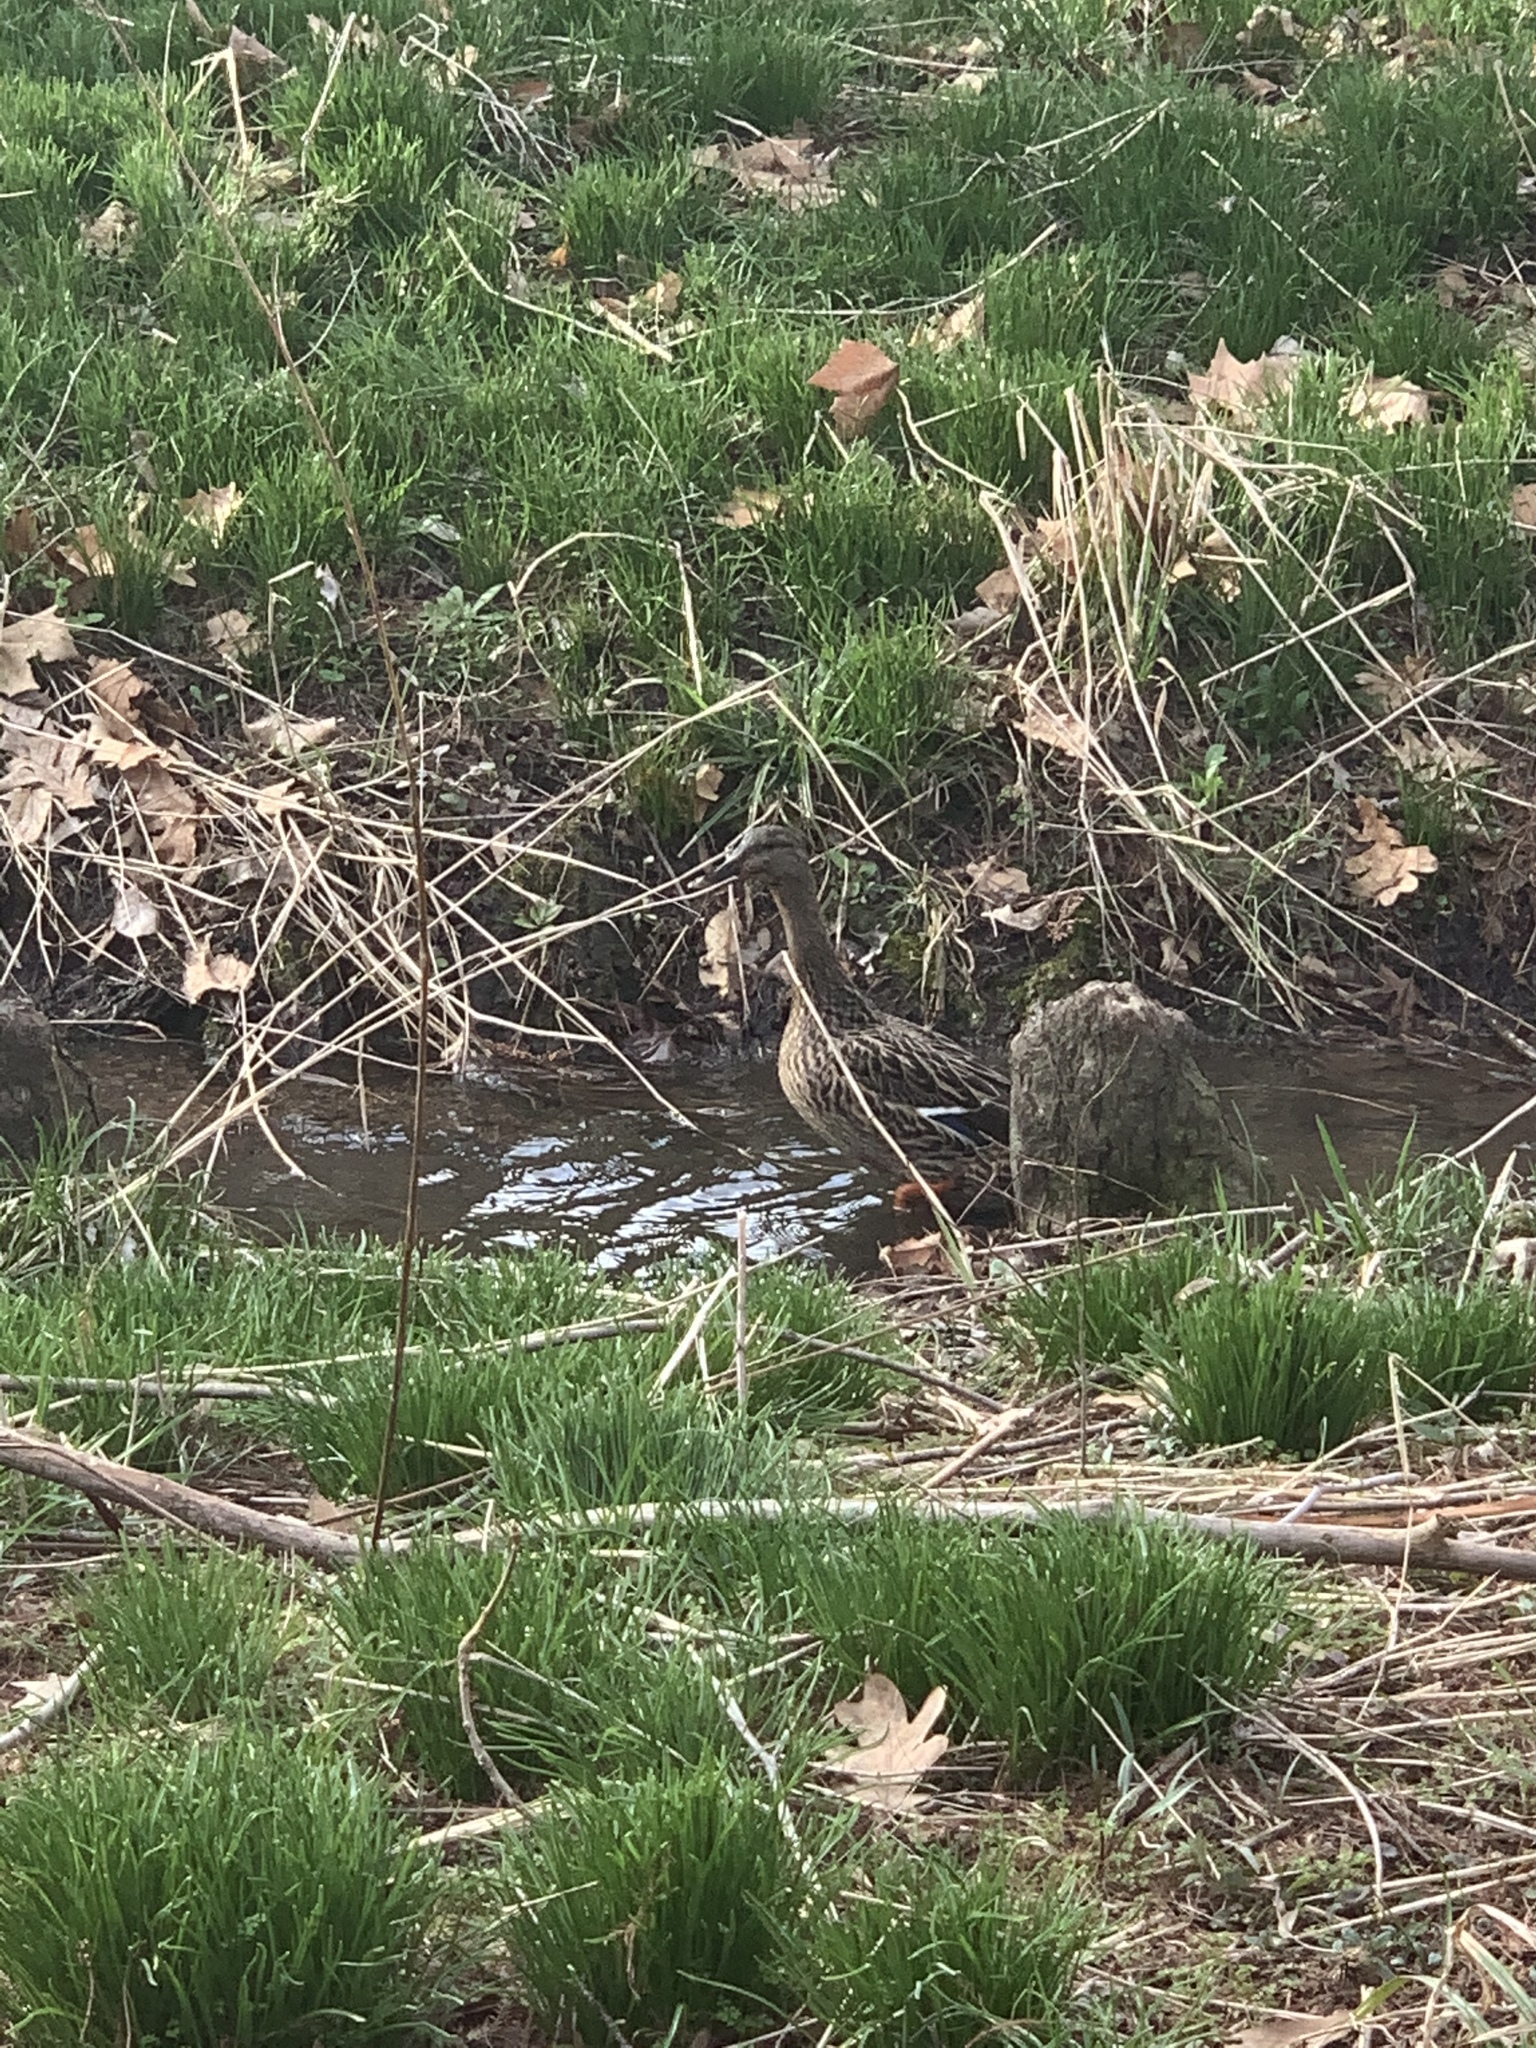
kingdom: Animalia
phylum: Chordata
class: Aves
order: Anseriformes
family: Anatidae
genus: Anas
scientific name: Anas platyrhynchos
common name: Mallard
